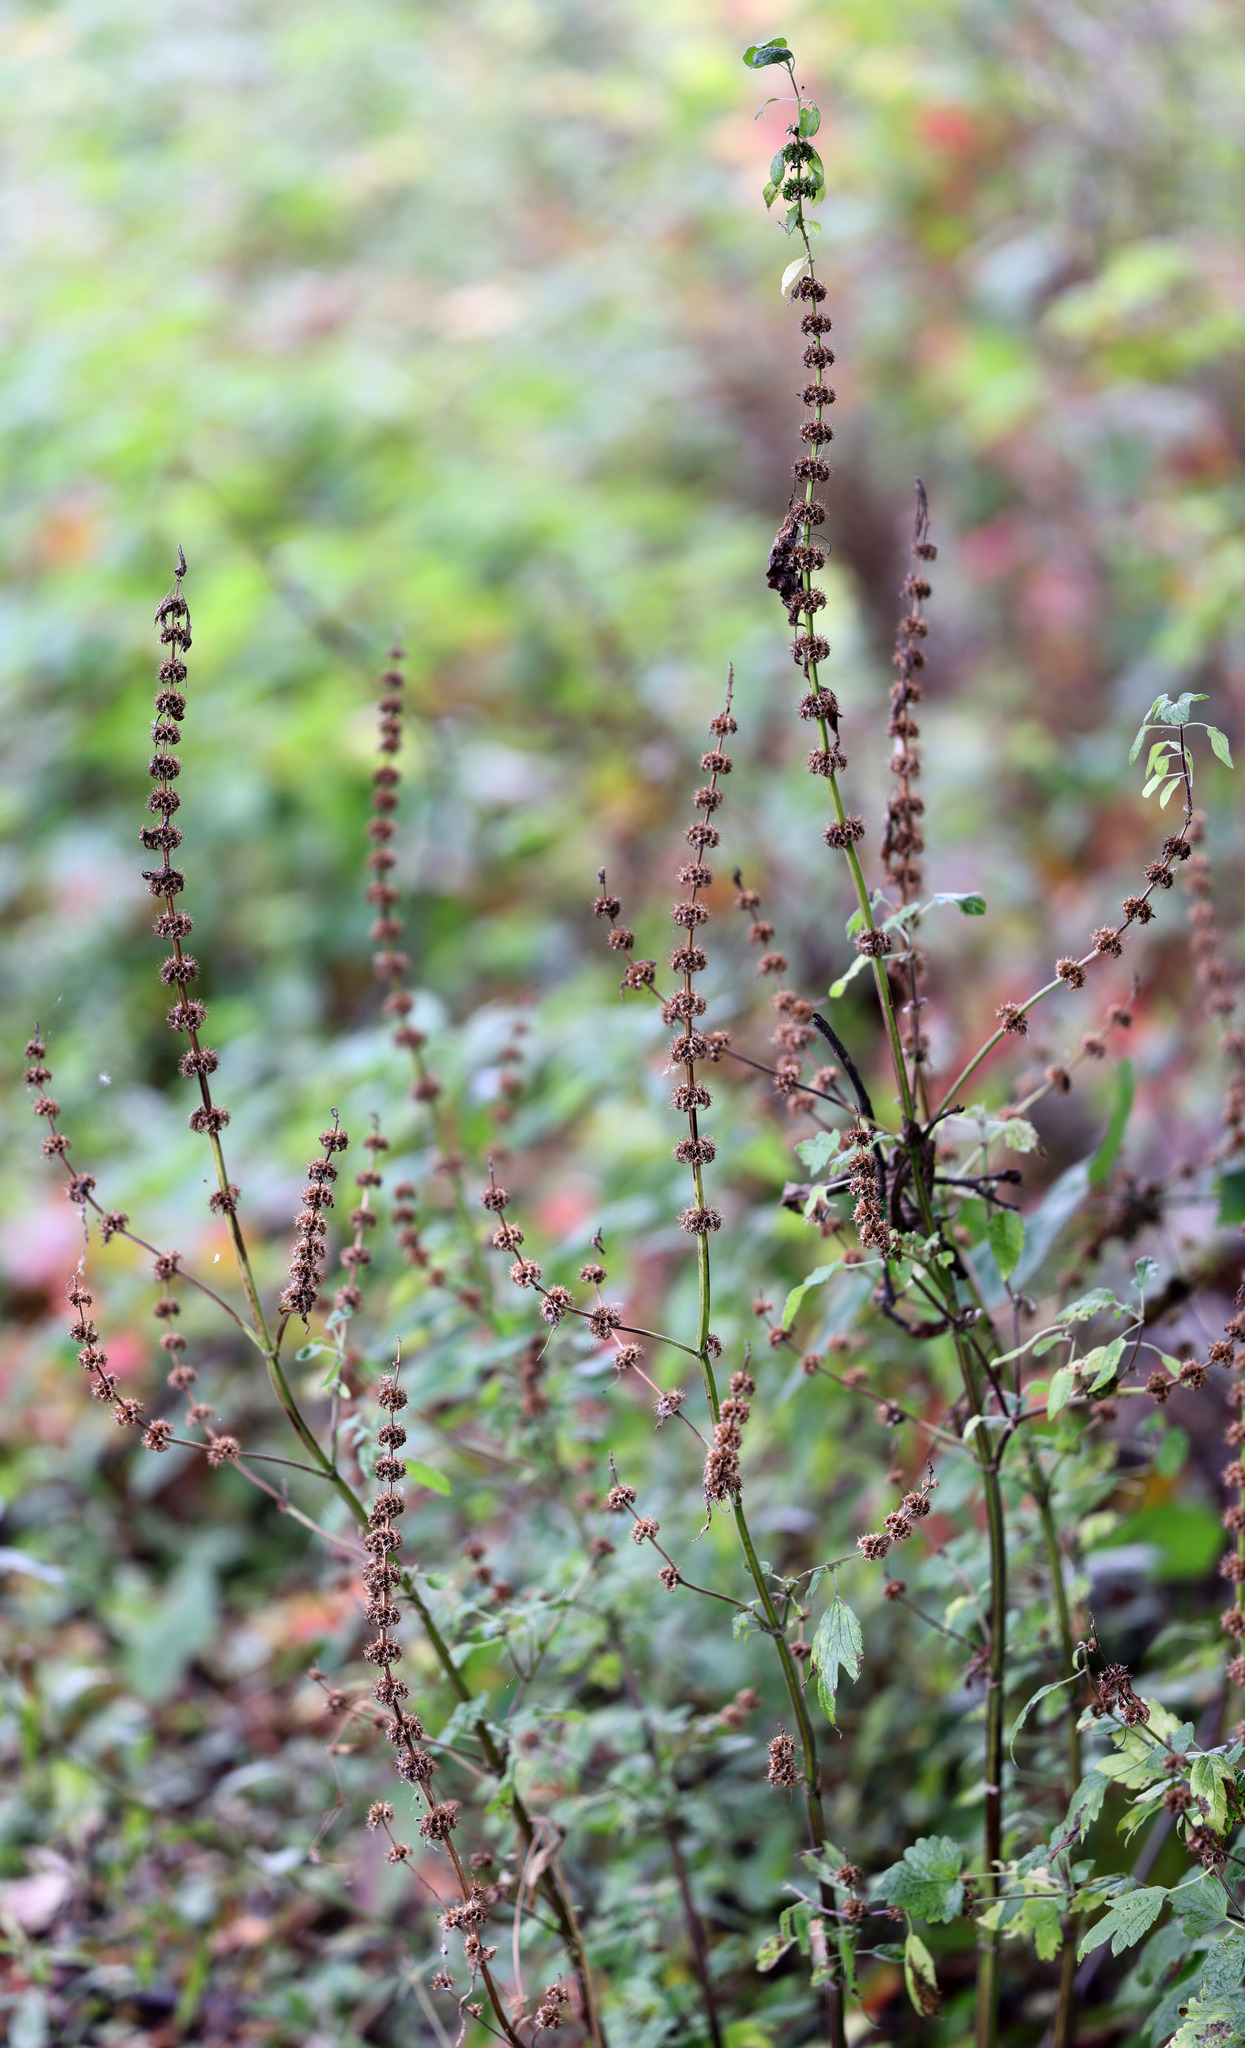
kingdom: Plantae
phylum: Tracheophyta
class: Magnoliopsida
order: Lamiales
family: Lamiaceae
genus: Leonurus
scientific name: Leonurus cardiaca
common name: Motherwort
